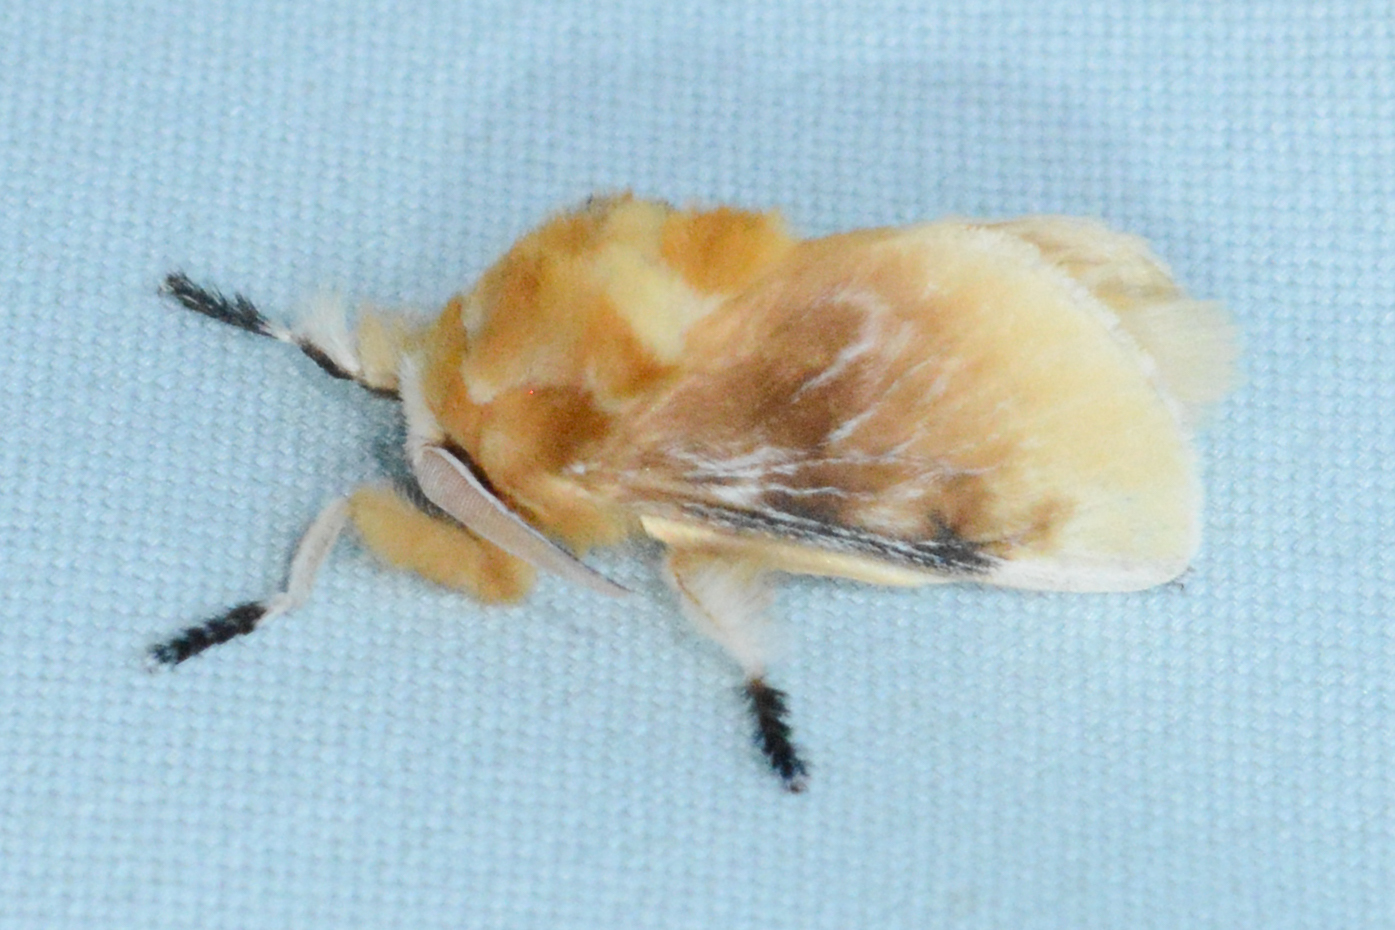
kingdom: Animalia
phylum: Arthropoda
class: Insecta
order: Lepidoptera
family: Megalopygidae
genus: Megalopyge
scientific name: Megalopyge opercularis
